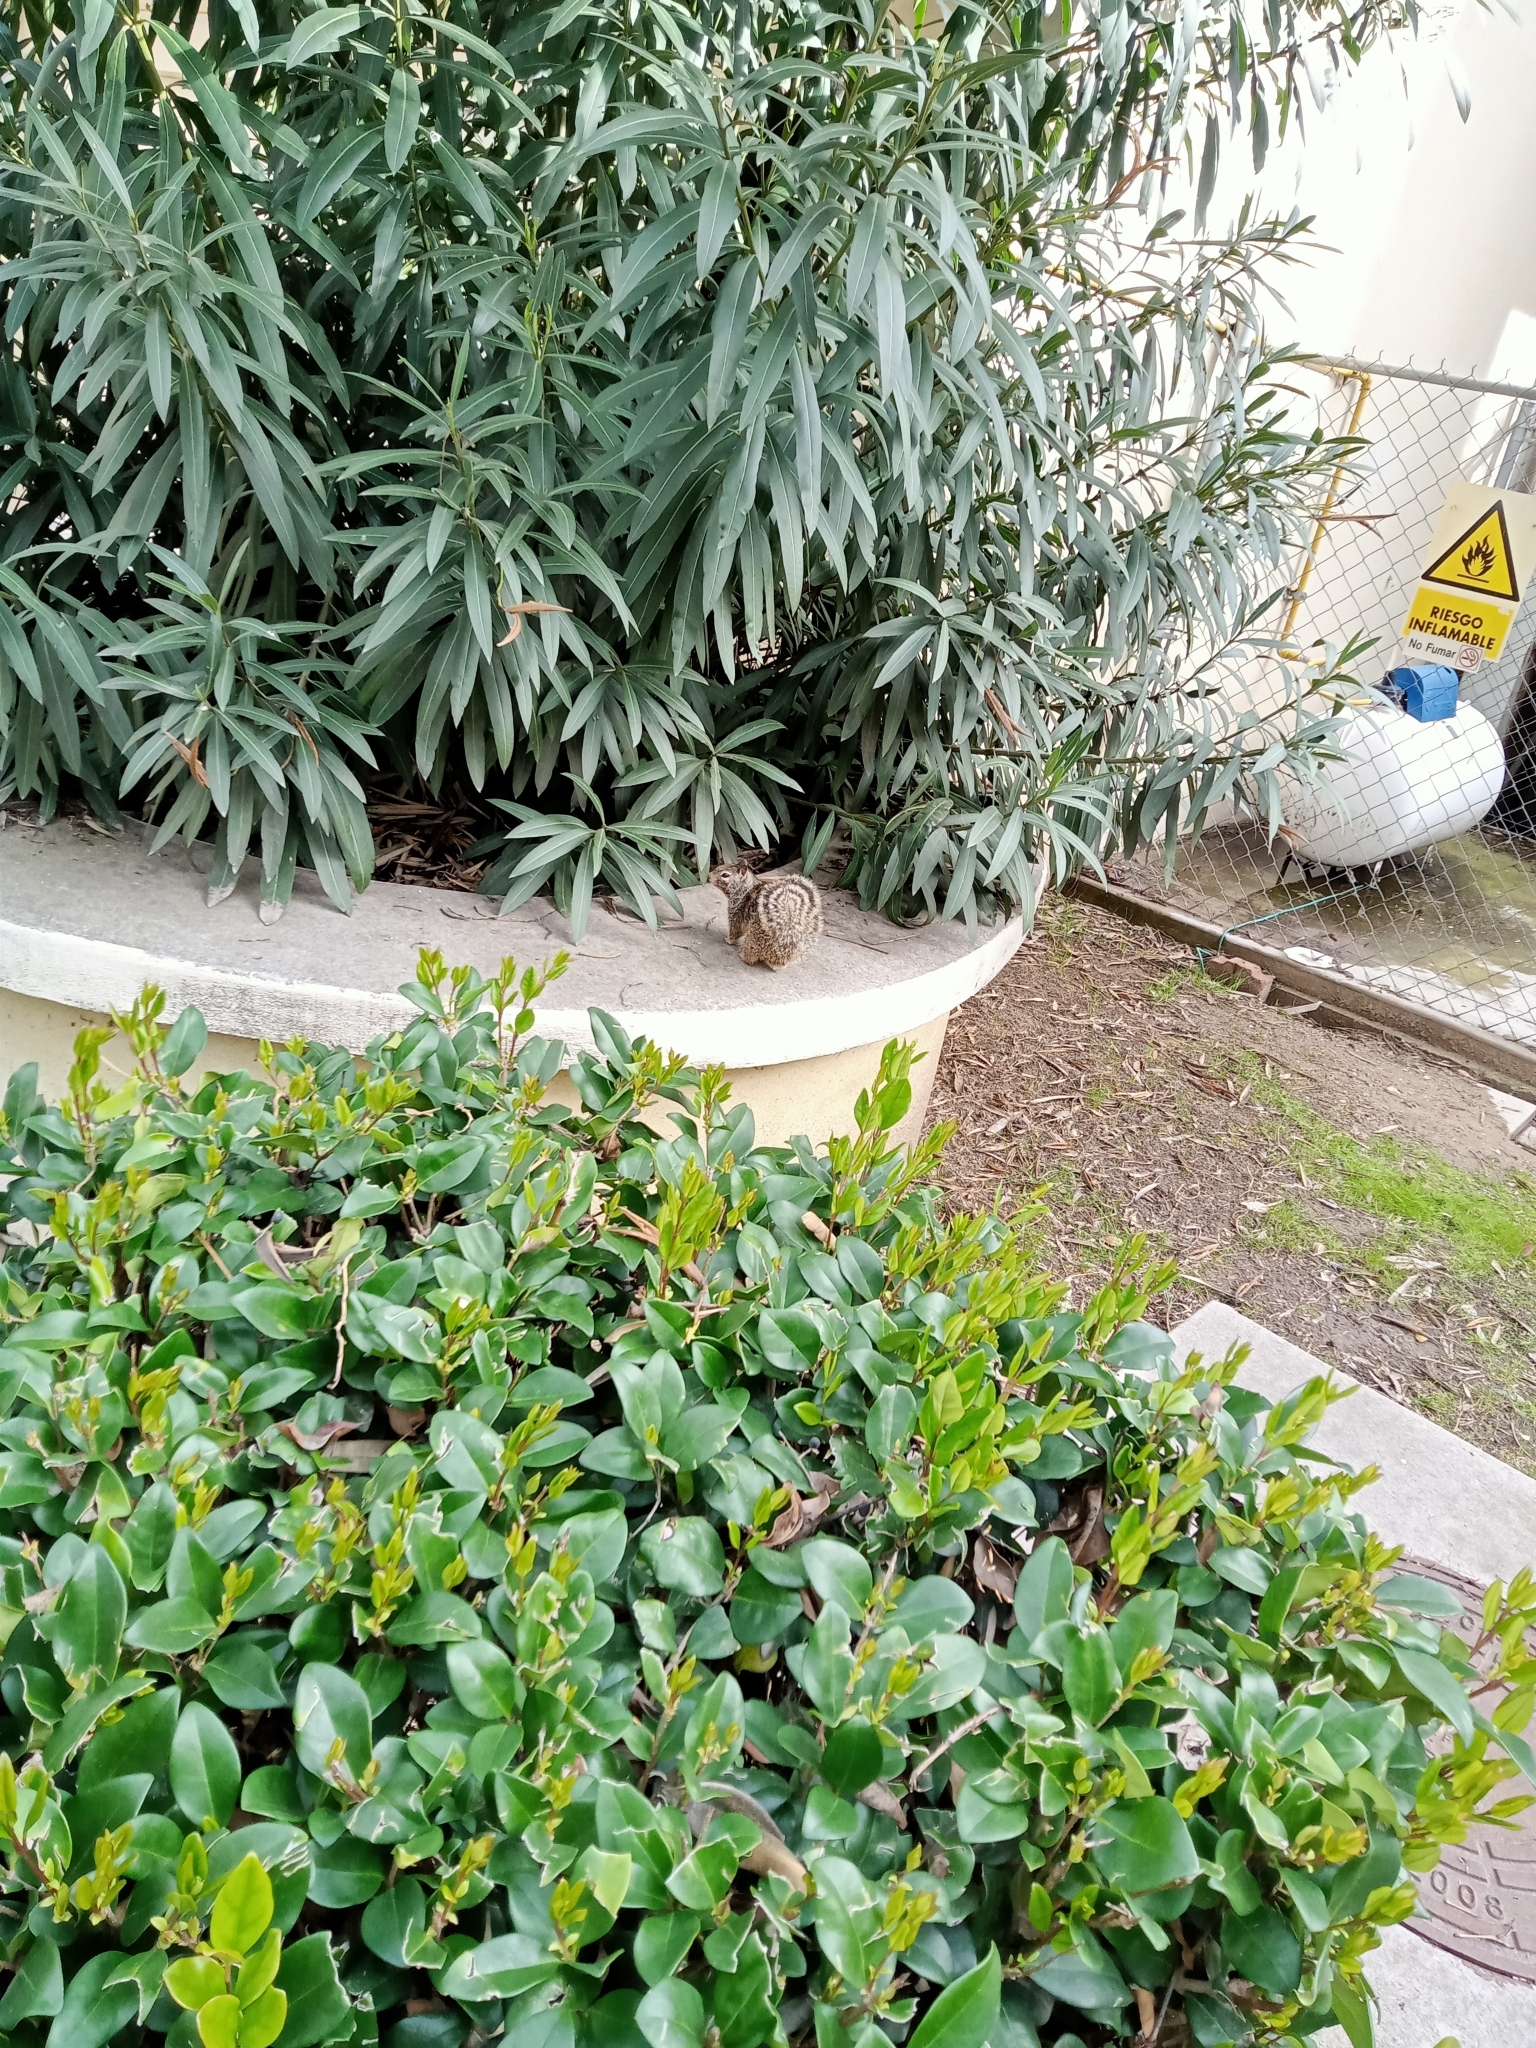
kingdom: Animalia
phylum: Chordata
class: Mammalia
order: Rodentia
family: Sciuridae
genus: Otospermophilus
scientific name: Otospermophilus beecheyi
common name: California ground squirrel
